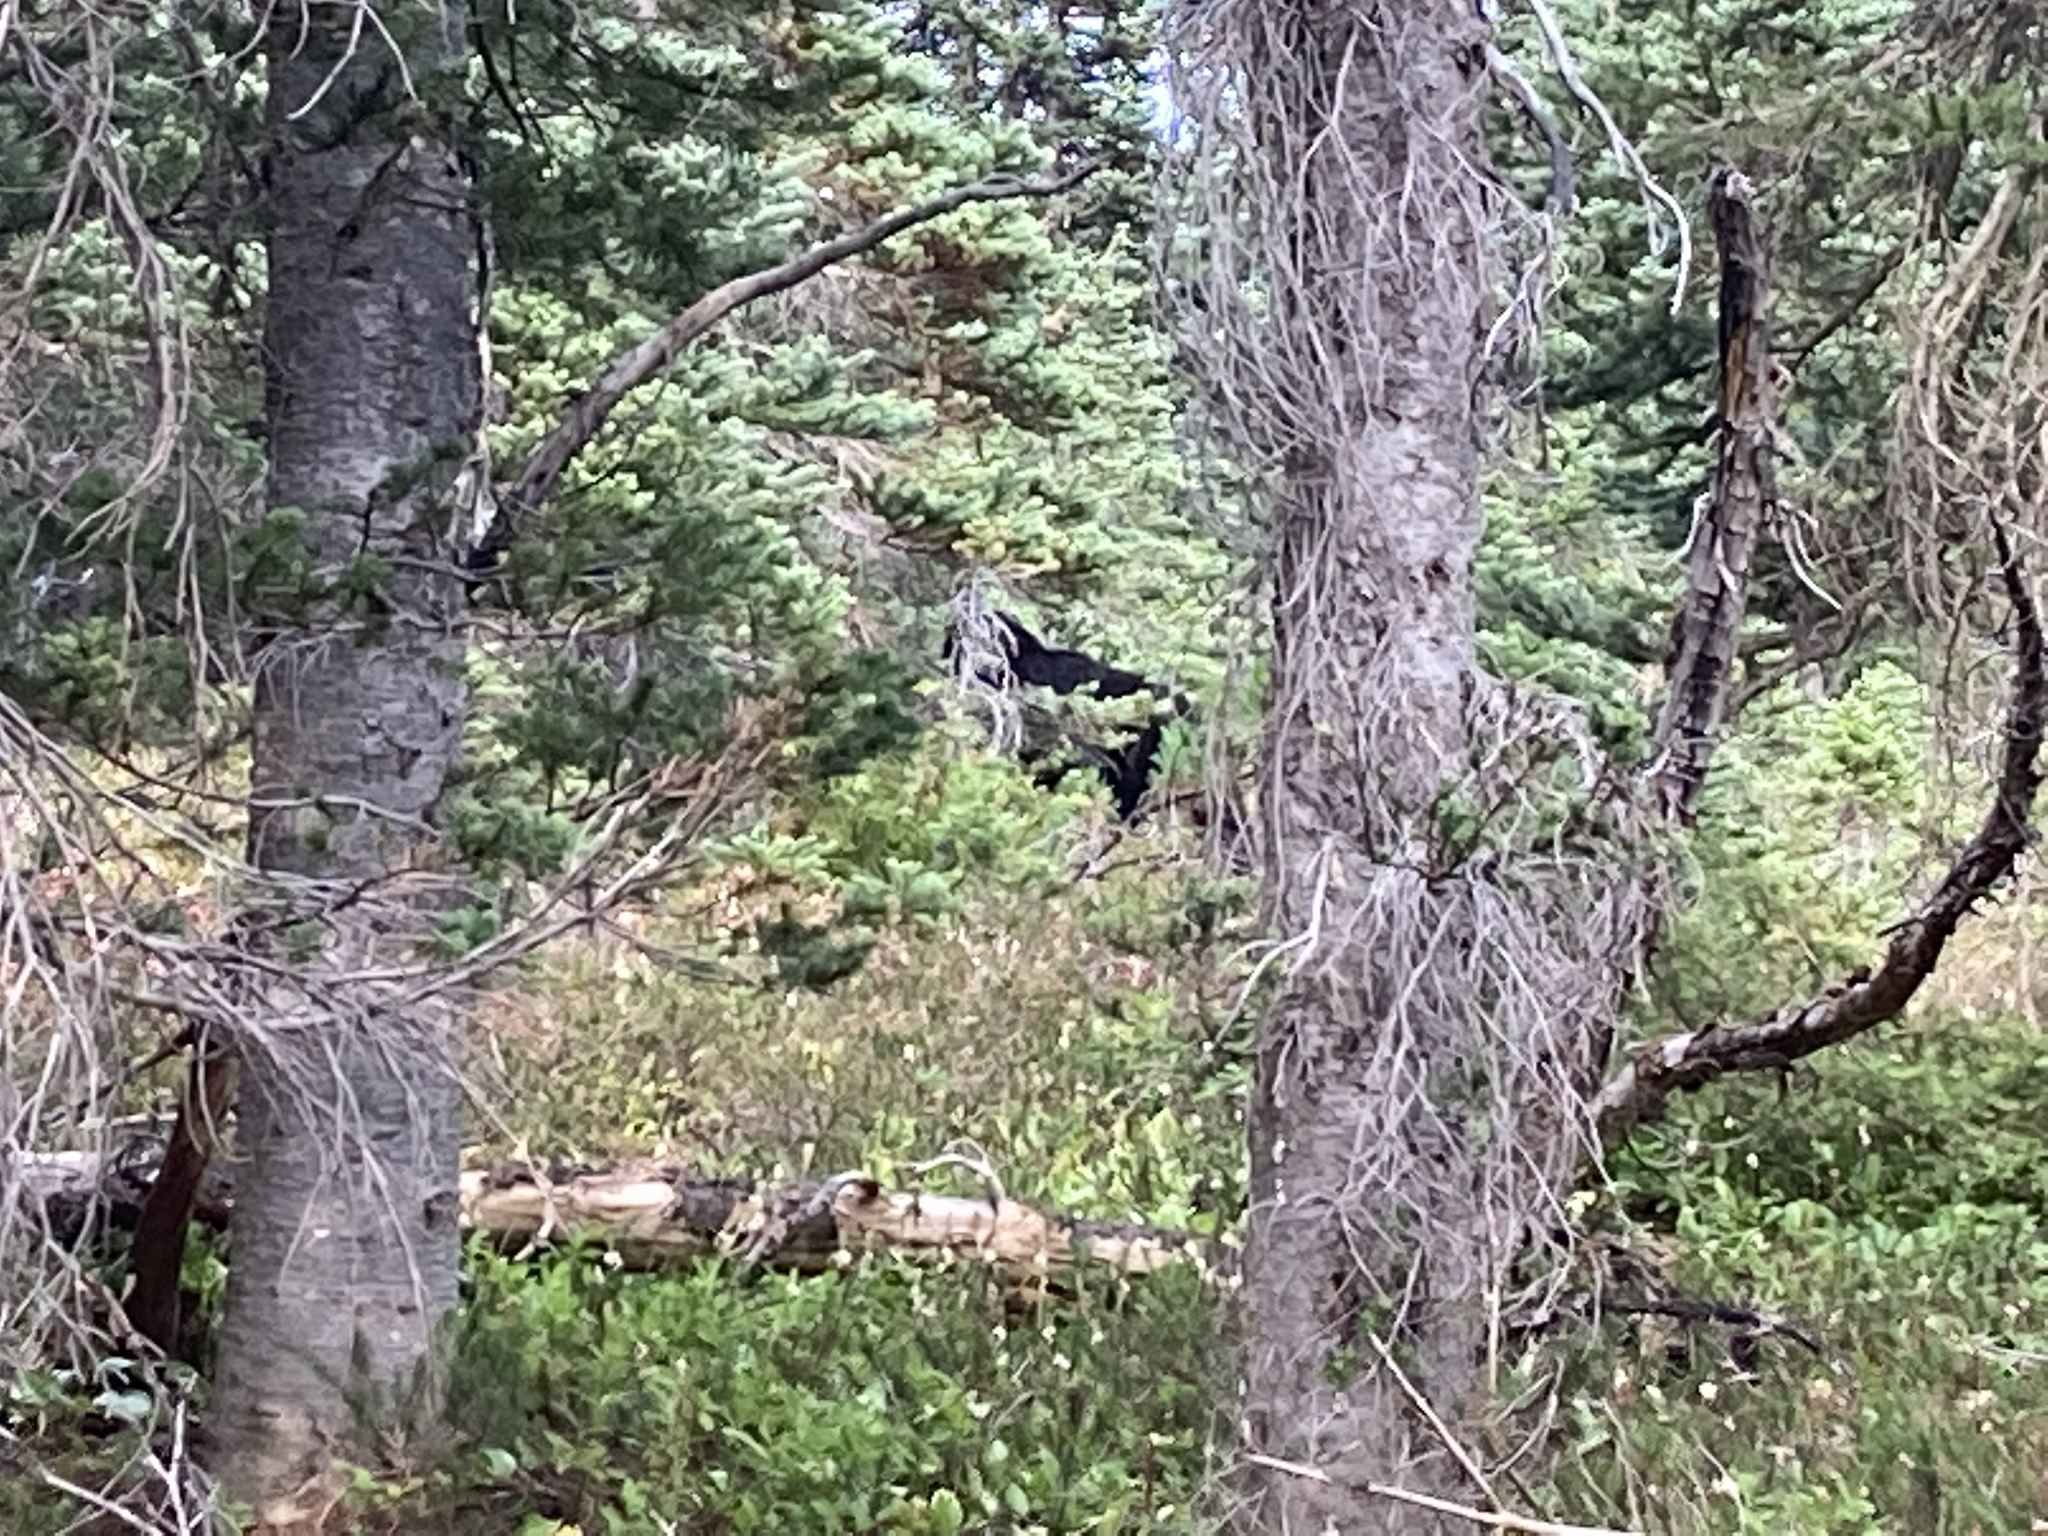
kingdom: Animalia
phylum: Chordata
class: Mammalia
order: Carnivora
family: Ursidae
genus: Ursus
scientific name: Ursus americanus
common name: American black bear
